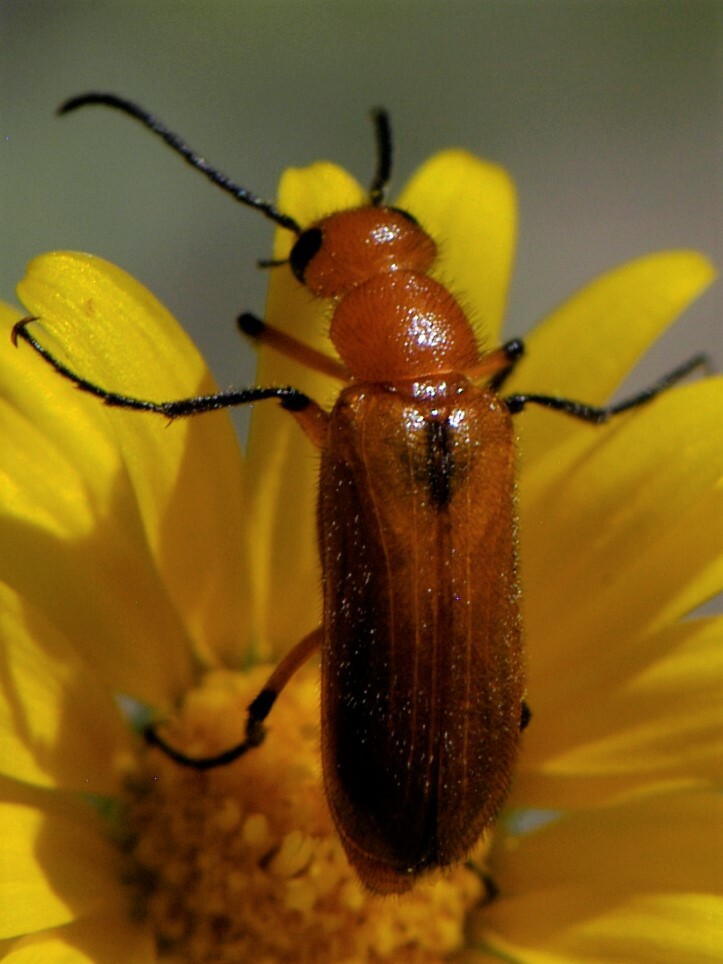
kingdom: Animalia
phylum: Arthropoda
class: Insecta
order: Coleoptera
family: Meloidae
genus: Nemognatha
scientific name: Nemognatha nigripennis
